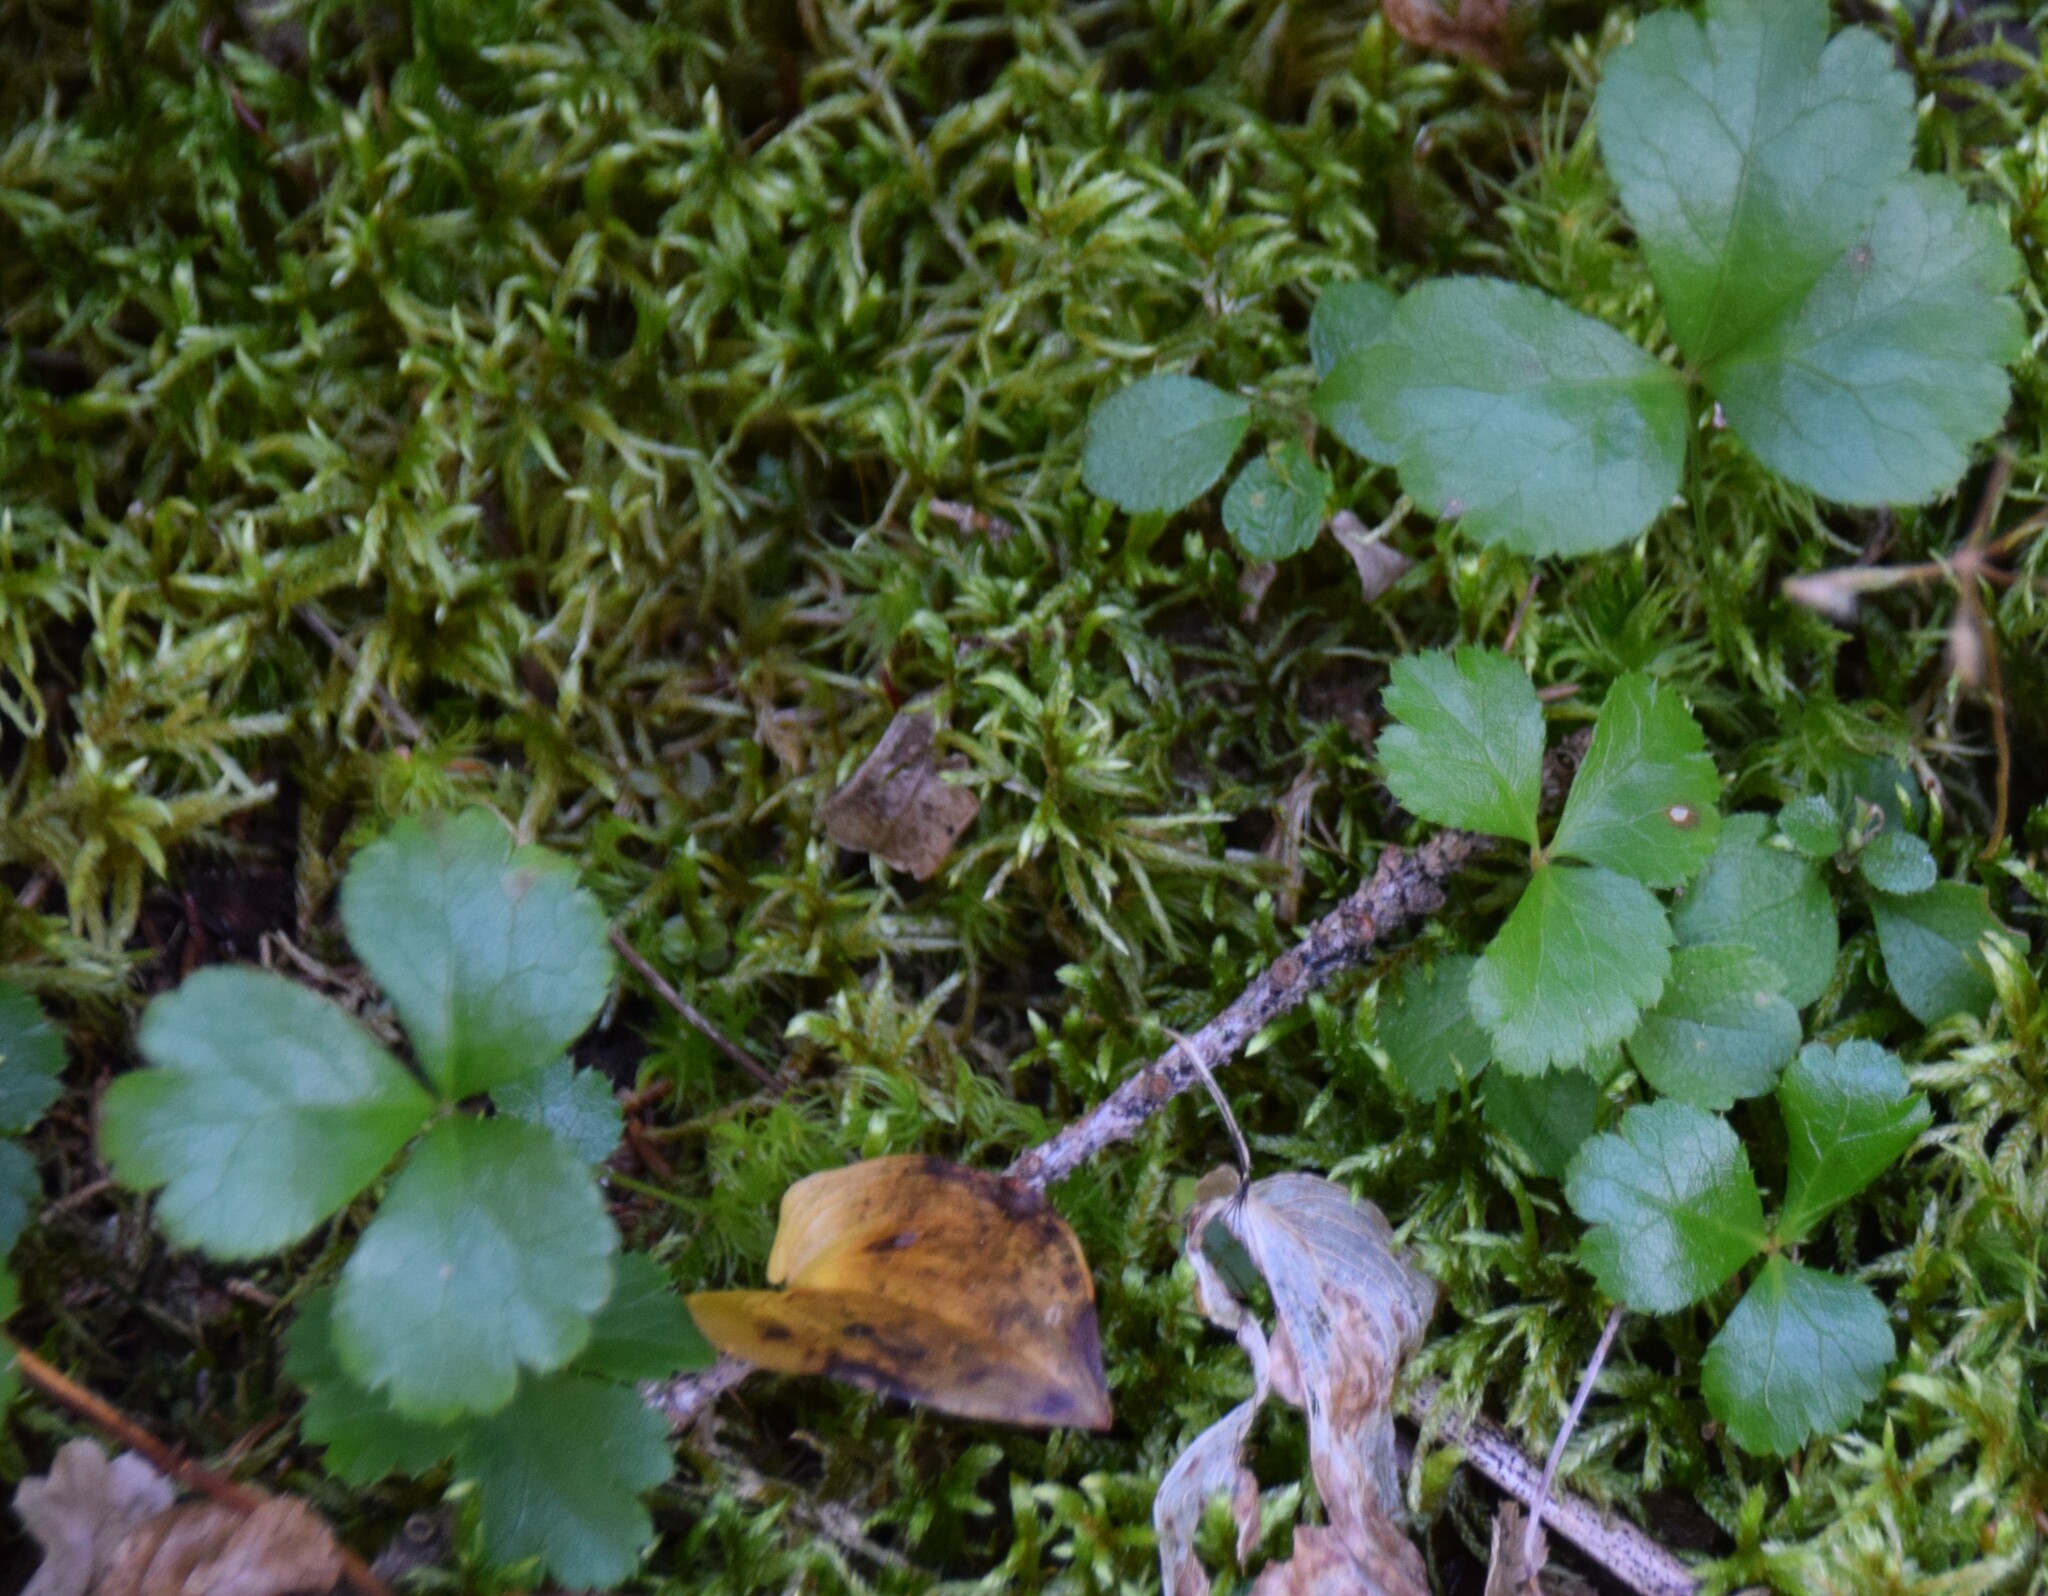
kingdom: Plantae
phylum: Tracheophyta
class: Magnoliopsida
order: Ranunculales
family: Ranunculaceae
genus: Coptis
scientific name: Coptis trifolia
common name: Canker-root
